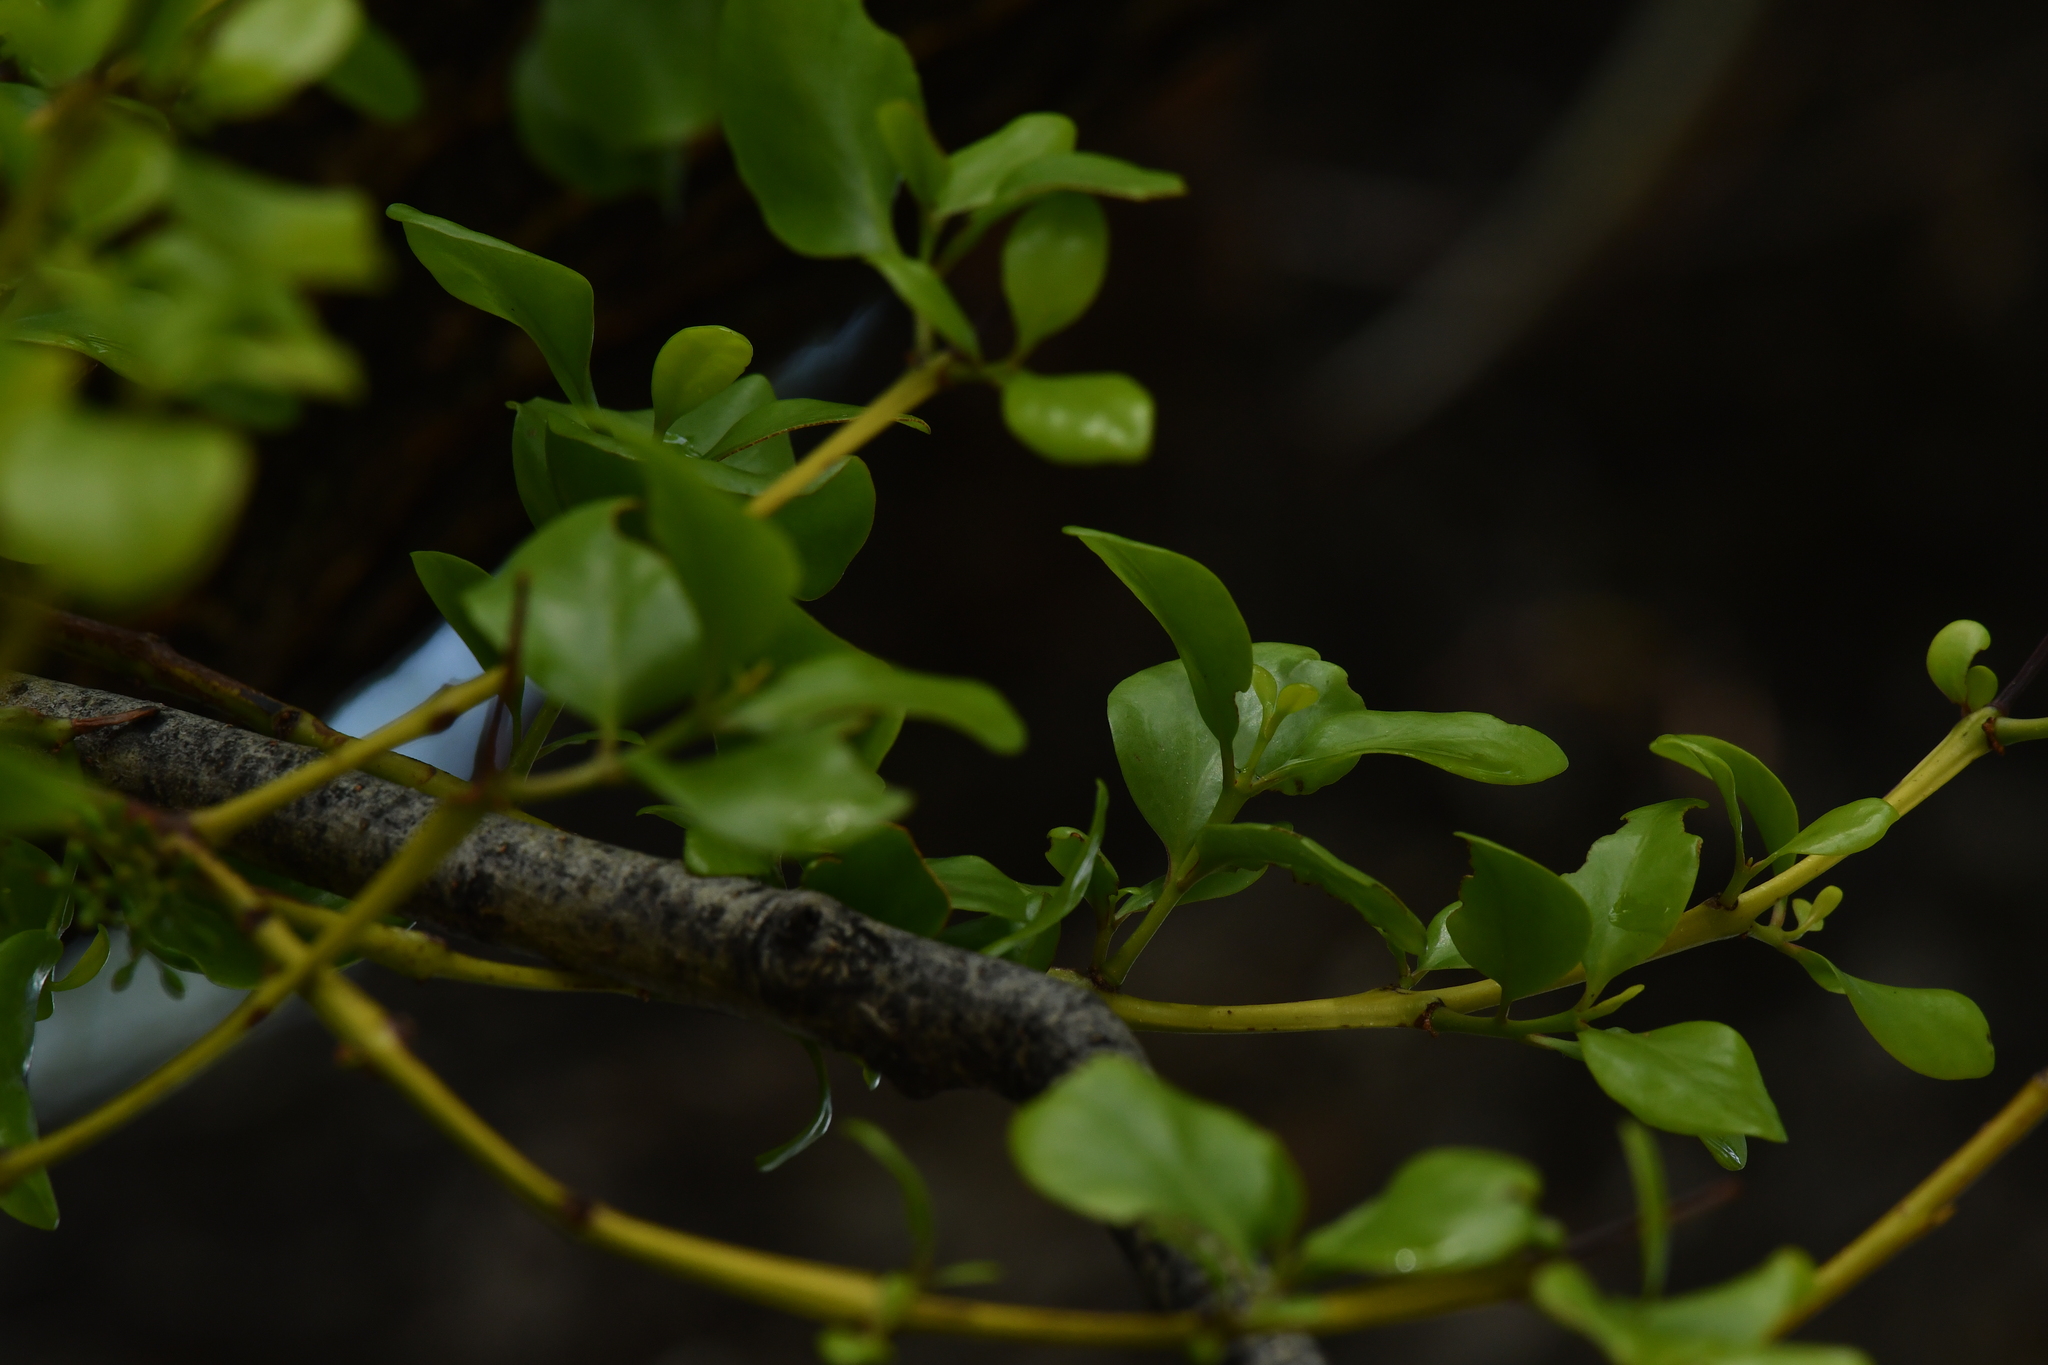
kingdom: Plantae
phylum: Tracheophyta
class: Magnoliopsida
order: Santalales
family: Loranthaceae
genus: Ileostylus
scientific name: Ileostylus micranthus
